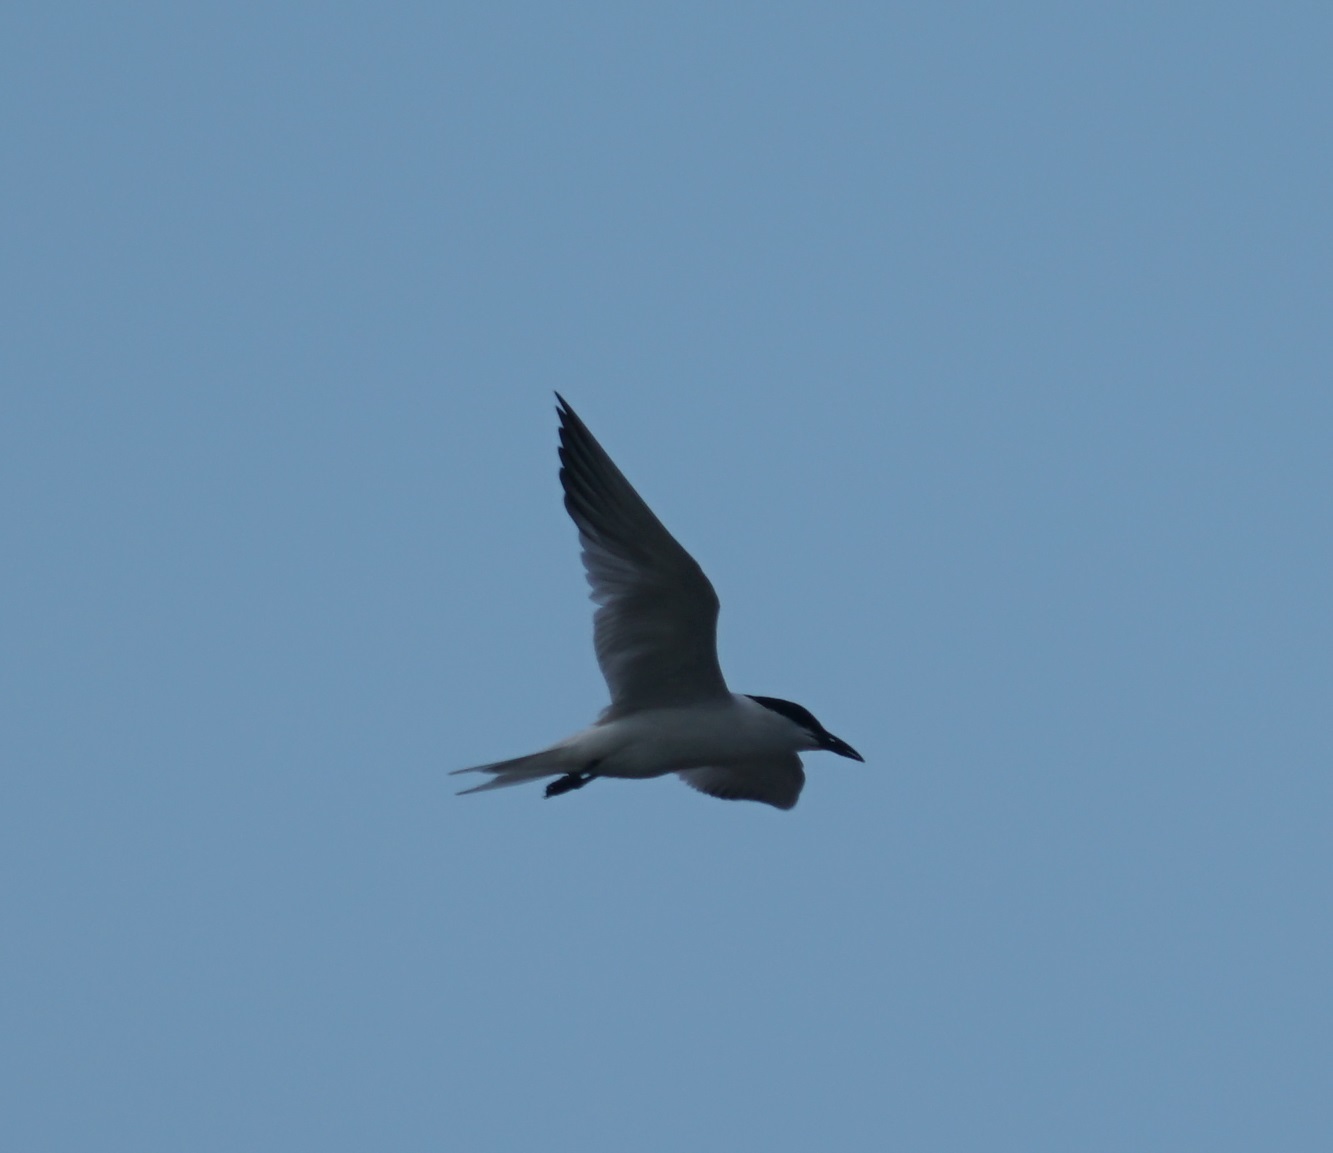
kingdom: Animalia
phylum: Chordata
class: Aves
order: Charadriiformes
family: Laridae
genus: Gelochelidon
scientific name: Gelochelidon macrotarsa
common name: Australian tern
